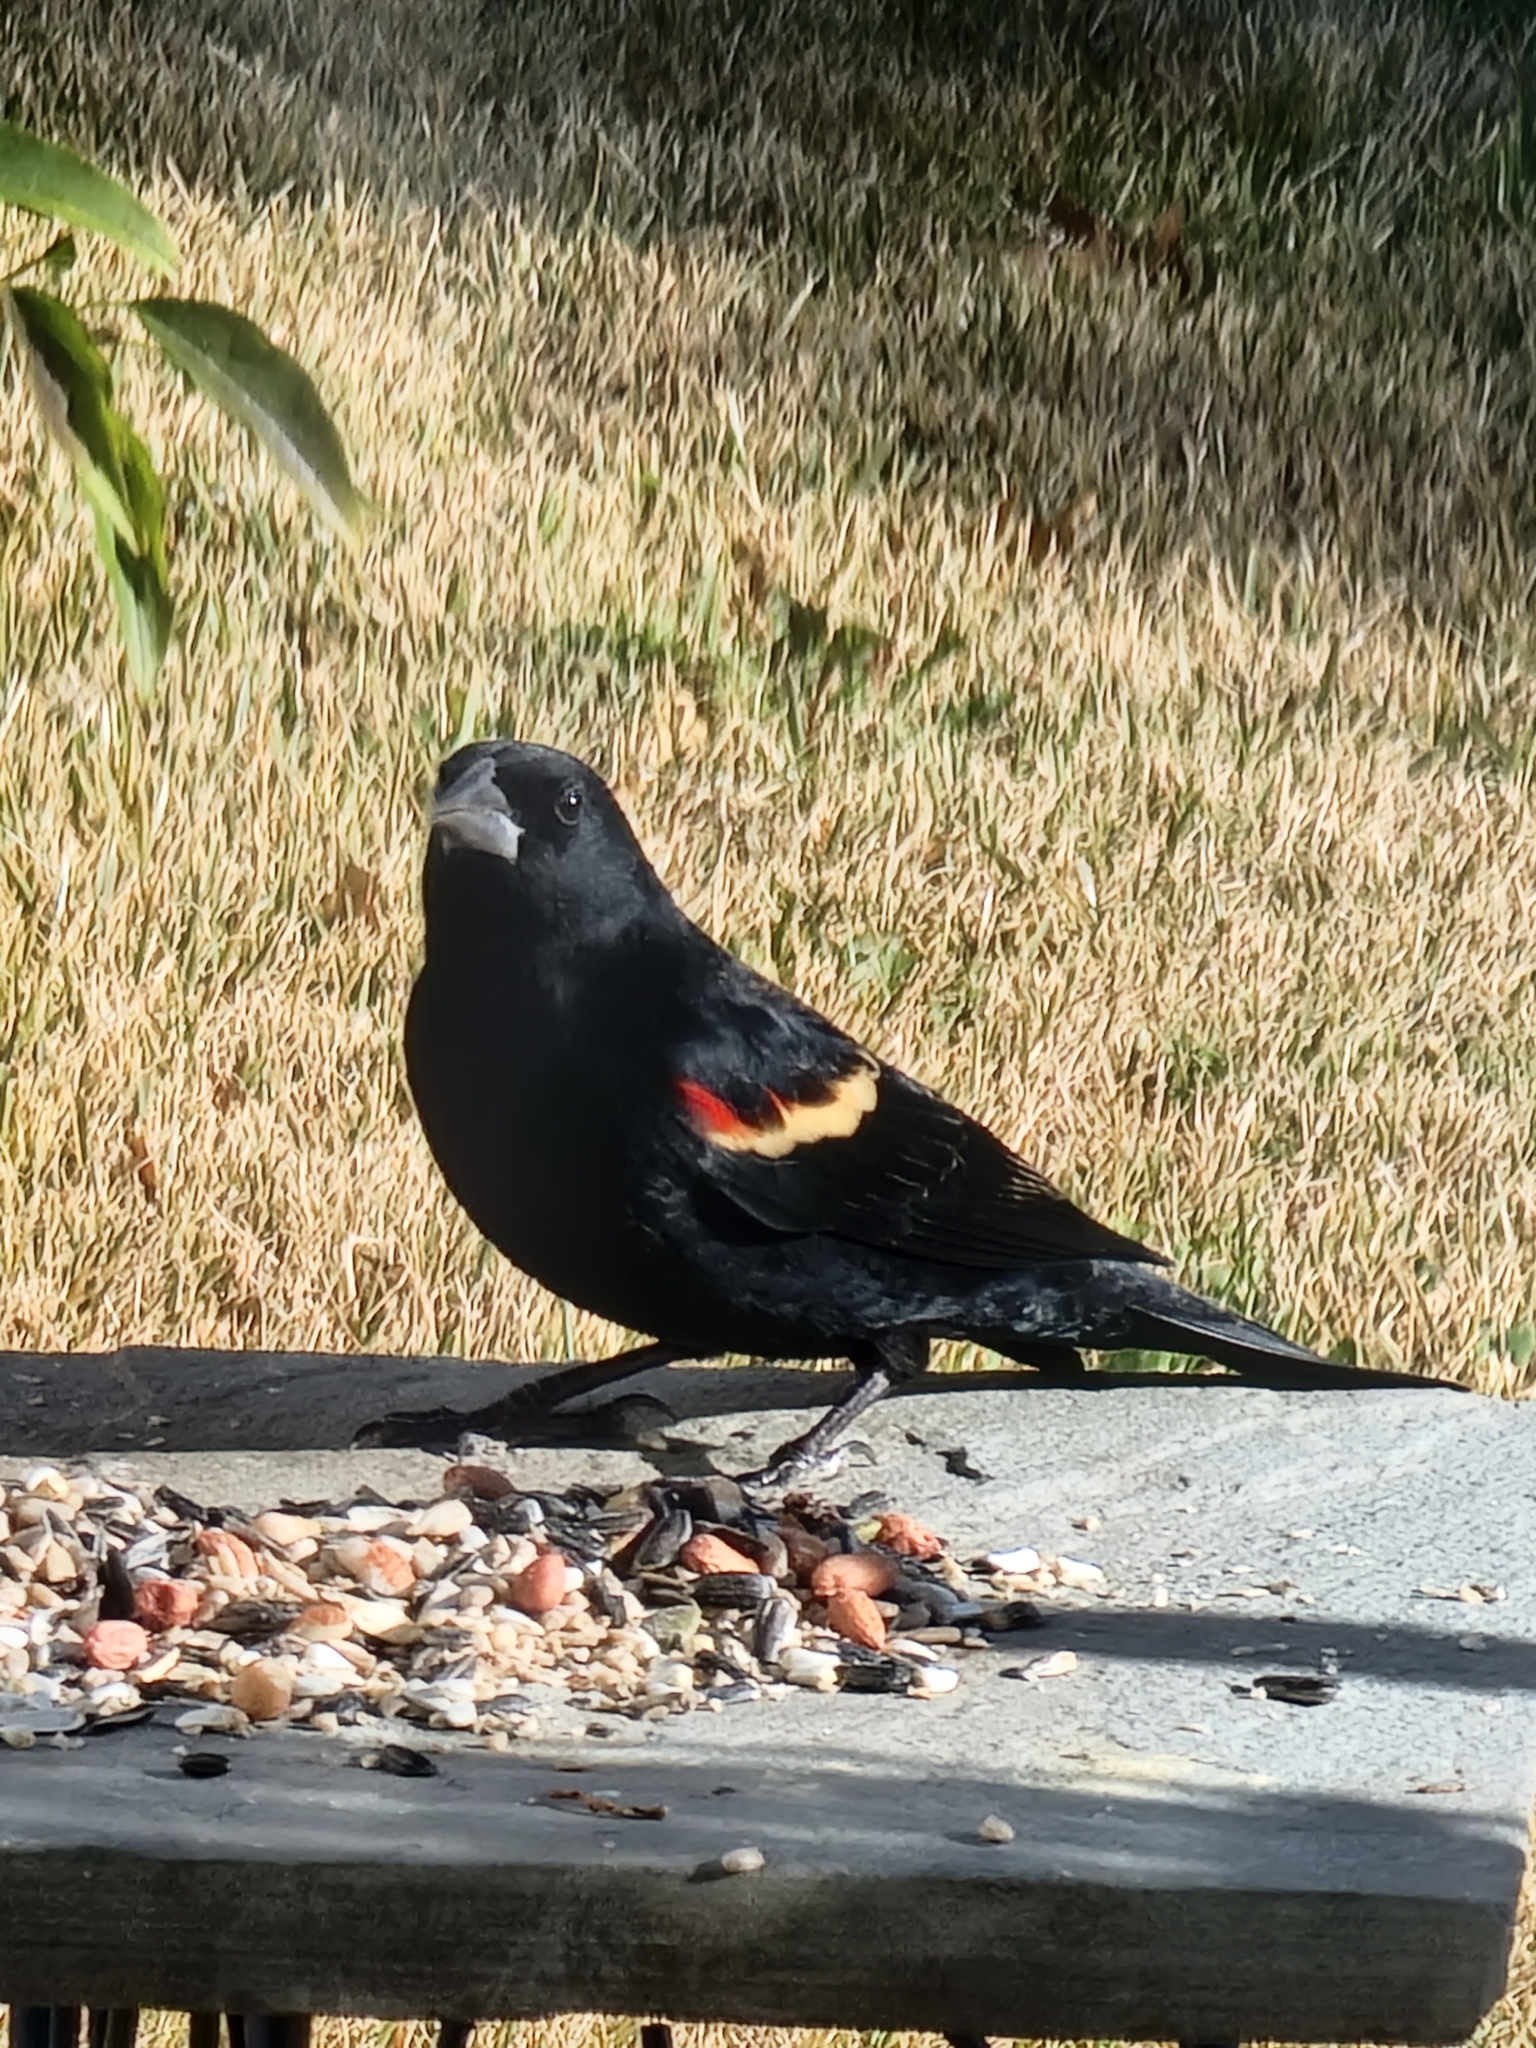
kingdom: Animalia
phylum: Chordata
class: Aves
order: Passeriformes
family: Icteridae
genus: Agelaius
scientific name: Agelaius phoeniceus
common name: Red-winged blackbird
